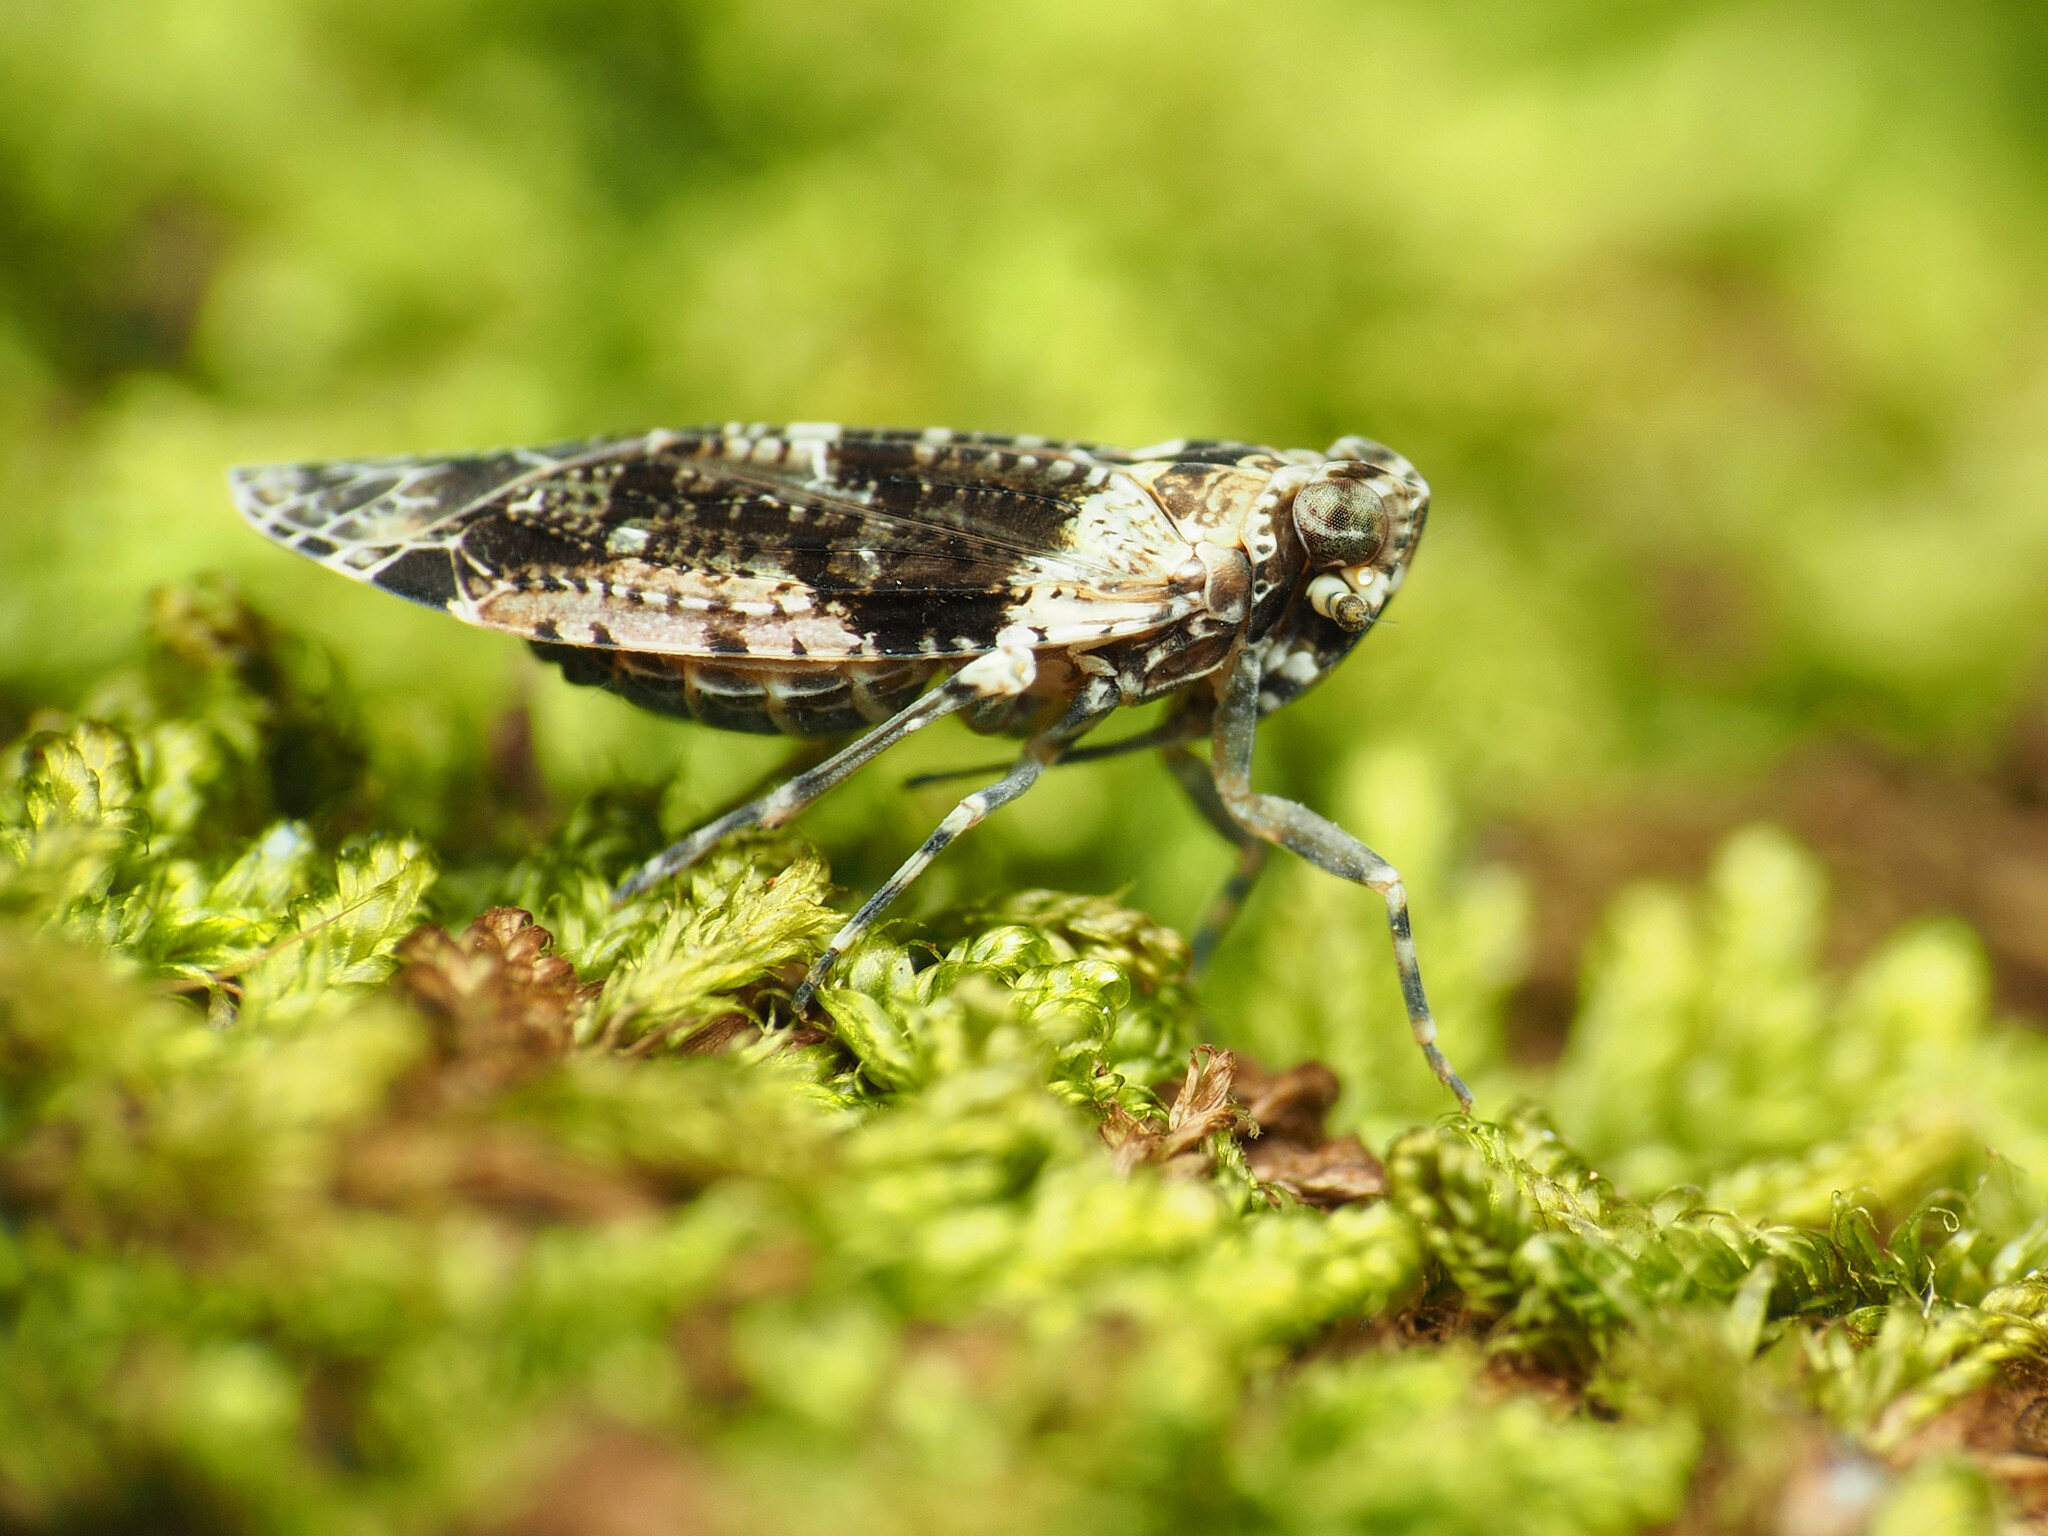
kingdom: Animalia
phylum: Arthropoda
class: Insecta
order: Hemiptera
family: Achilidae
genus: Catonia
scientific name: Catonia nava
